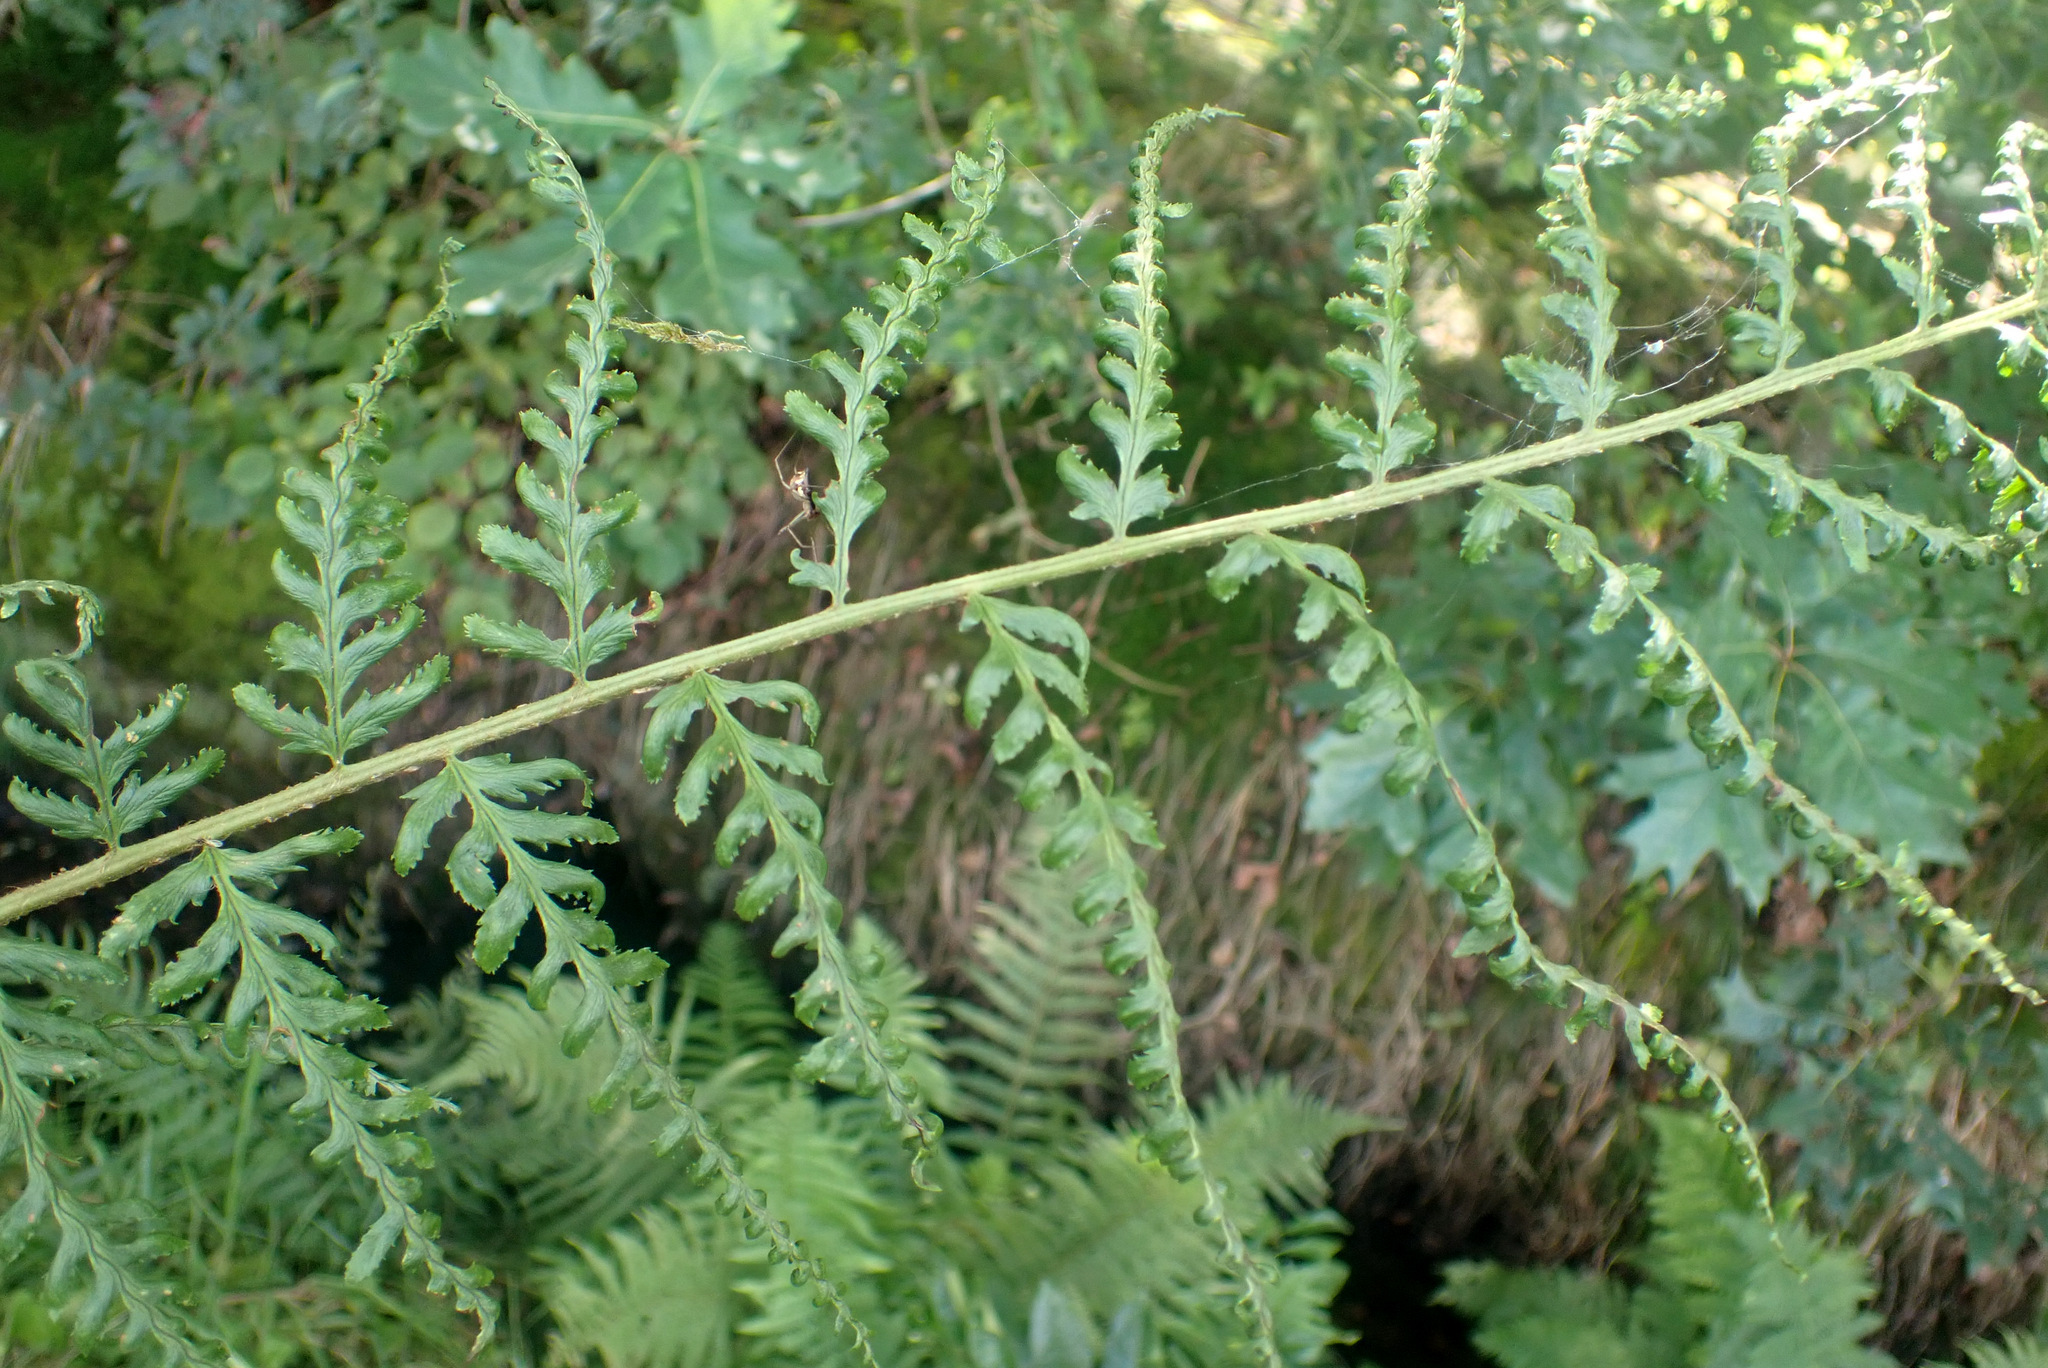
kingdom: Plantae
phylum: Tracheophyta
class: Polypodiopsida
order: Polypodiales
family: Dryopteridaceae
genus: Dryopteris
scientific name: Dryopteris filix-mas
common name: Male fern
